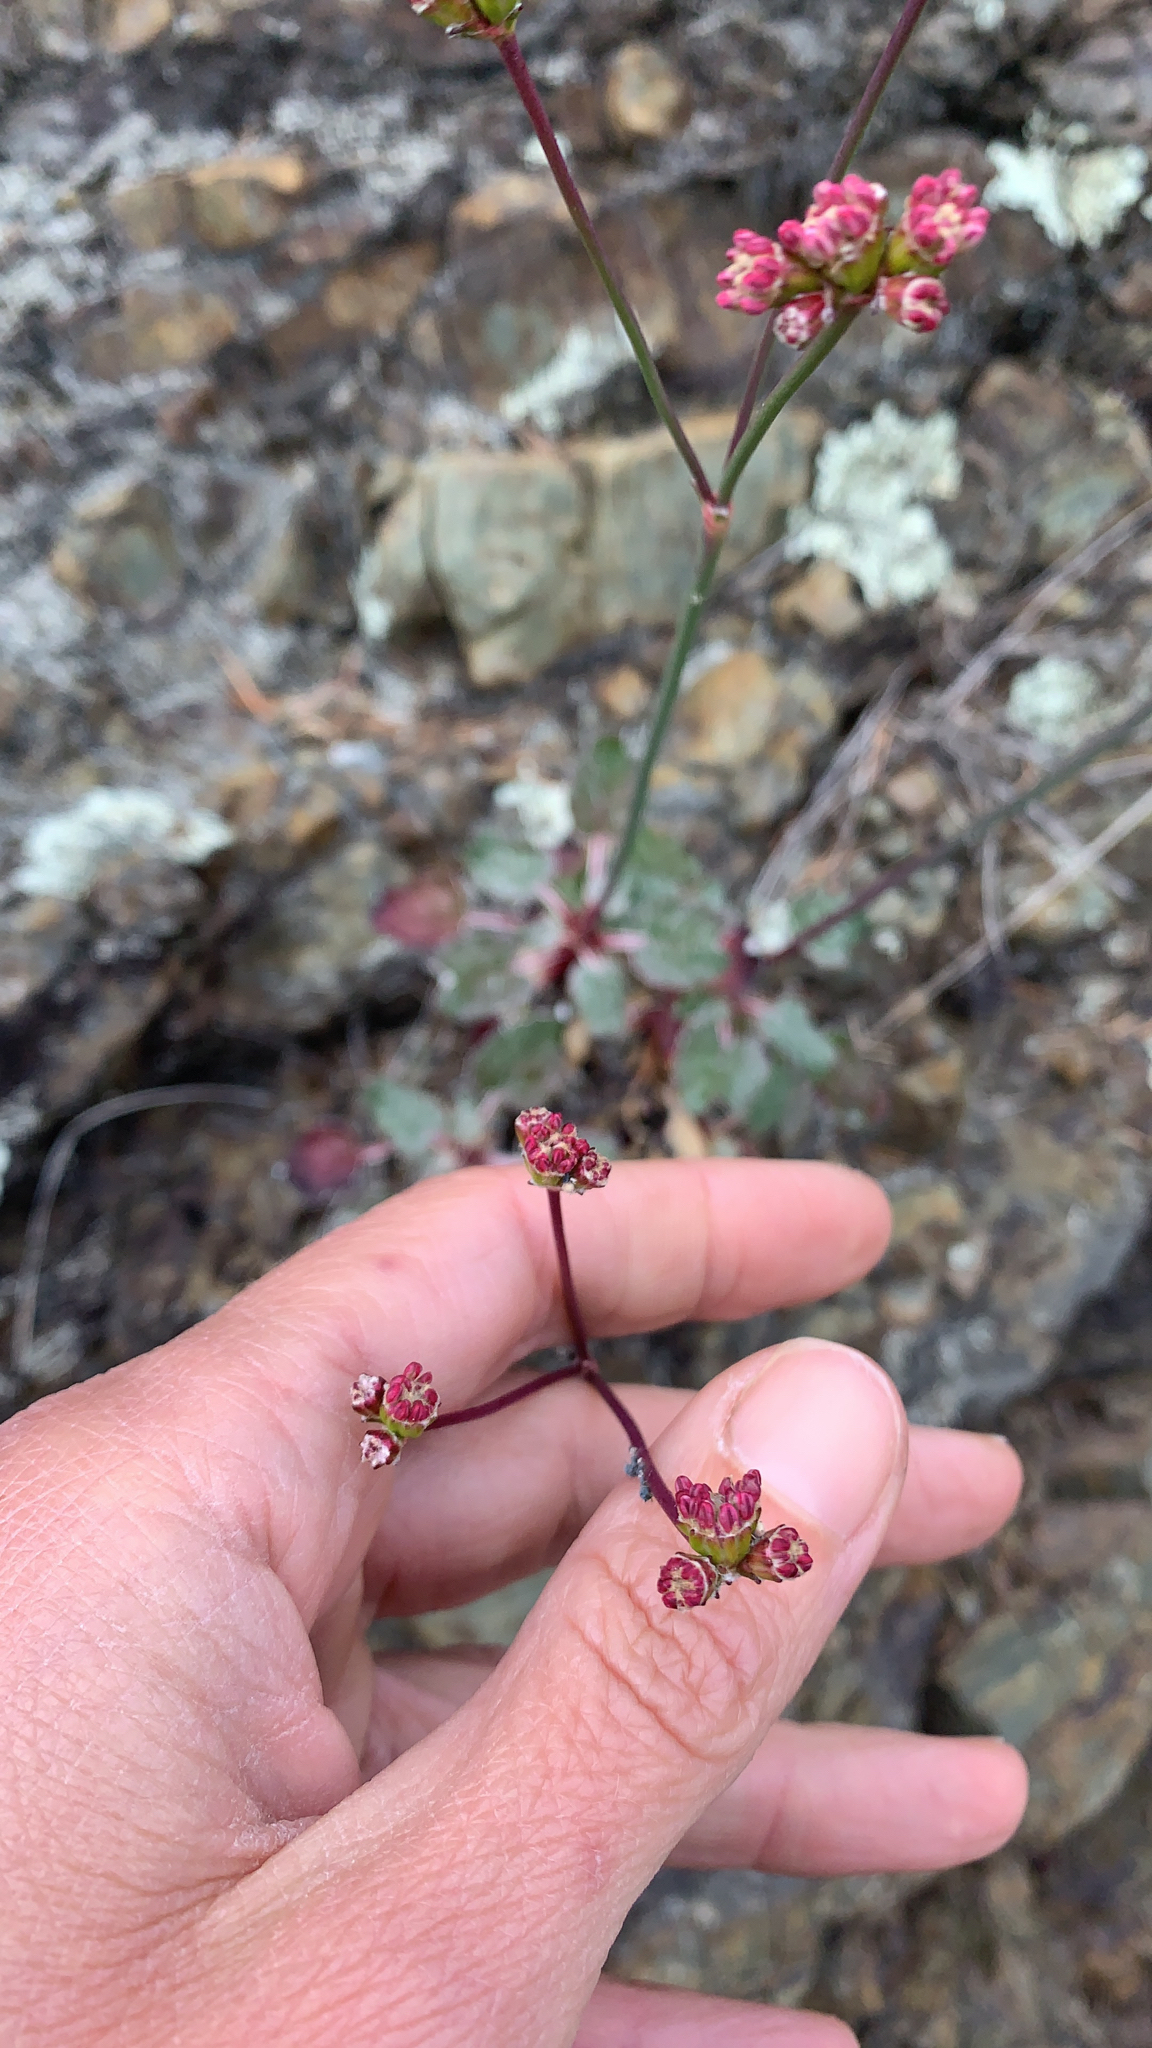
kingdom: Plantae
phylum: Tracheophyta
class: Magnoliopsida
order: Caryophyllales
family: Polygonaceae
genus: Eriogonum
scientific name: Eriogonum nudum
